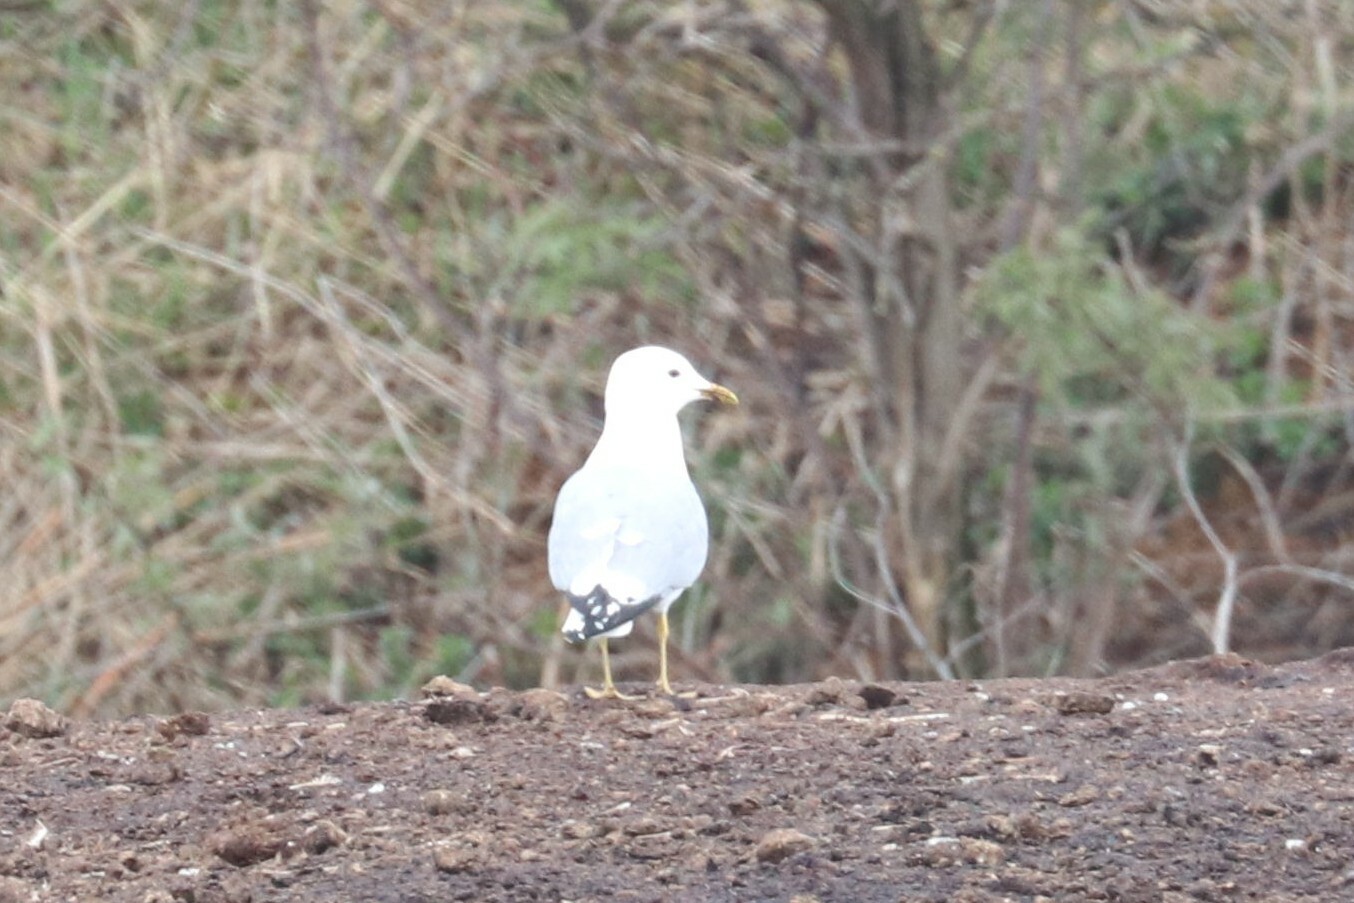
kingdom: Animalia
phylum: Chordata
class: Aves
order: Charadriiformes
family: Laridae
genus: Larus
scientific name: Larus canus
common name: Mew gull
